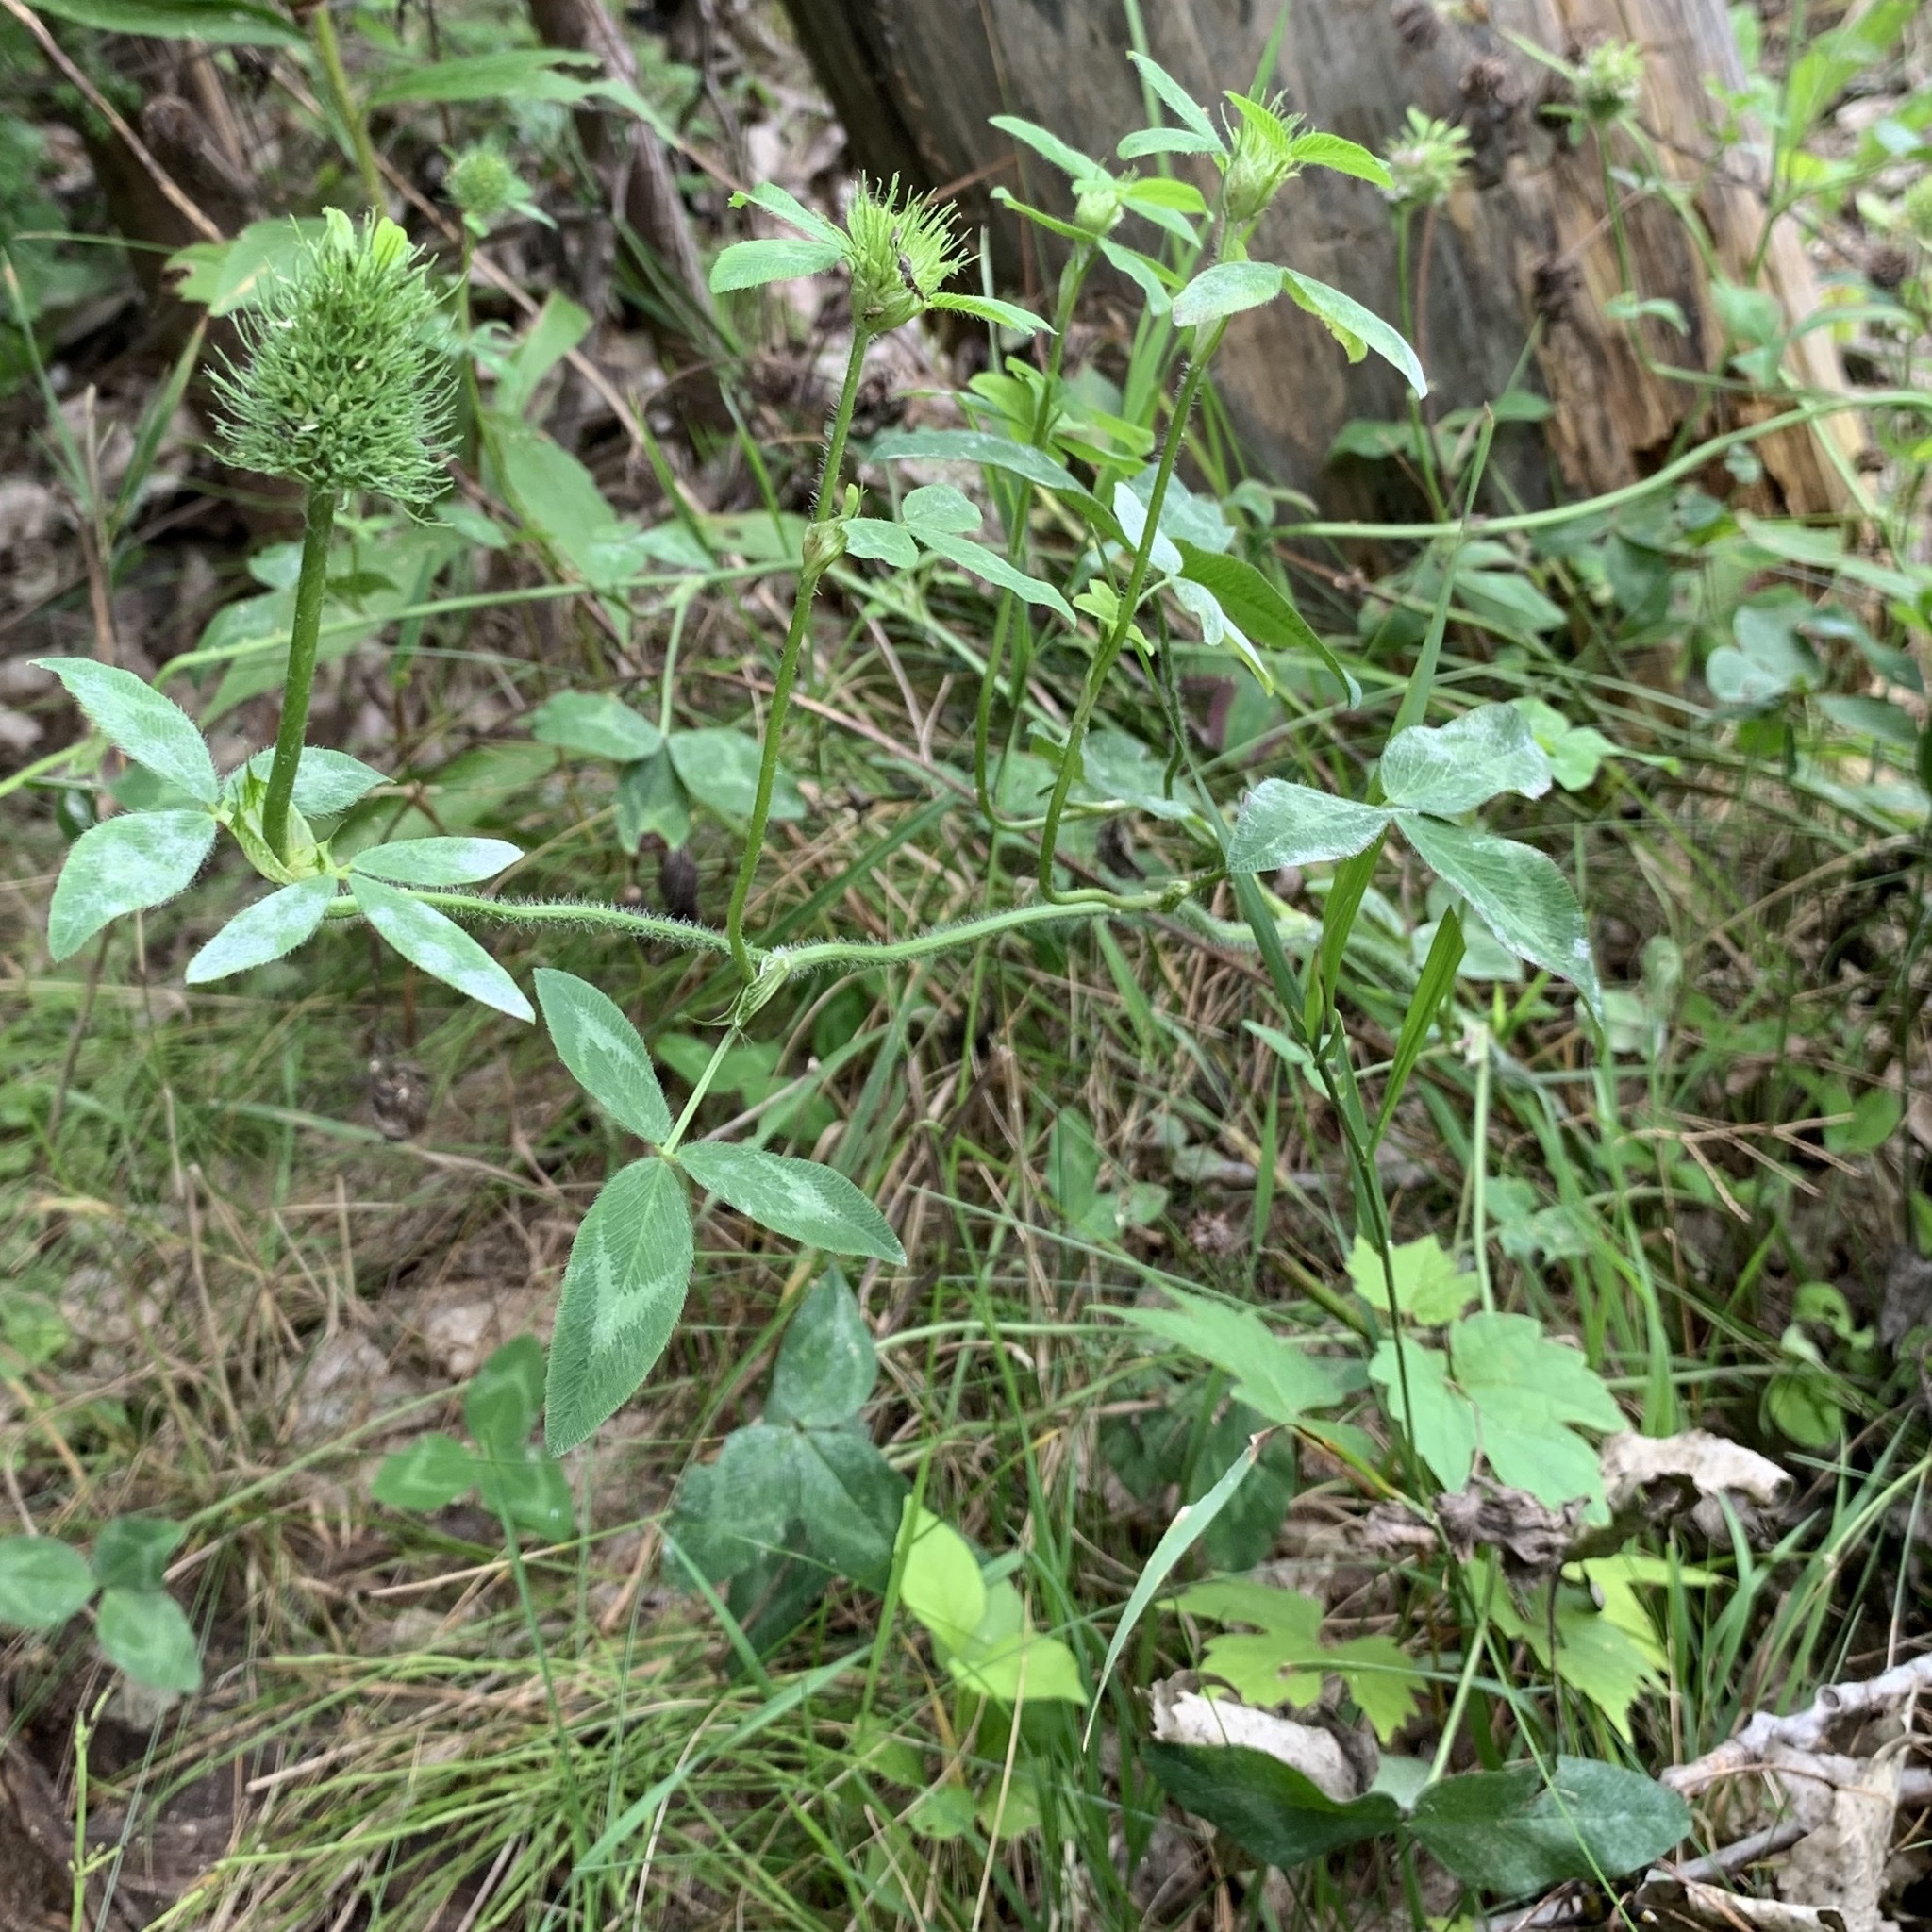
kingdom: Plantae
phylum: Tracheophyta
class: Magnoliopsida
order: Fabales
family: Fabaceae
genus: Trifolium
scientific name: Trifolium pratense
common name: Red clover
